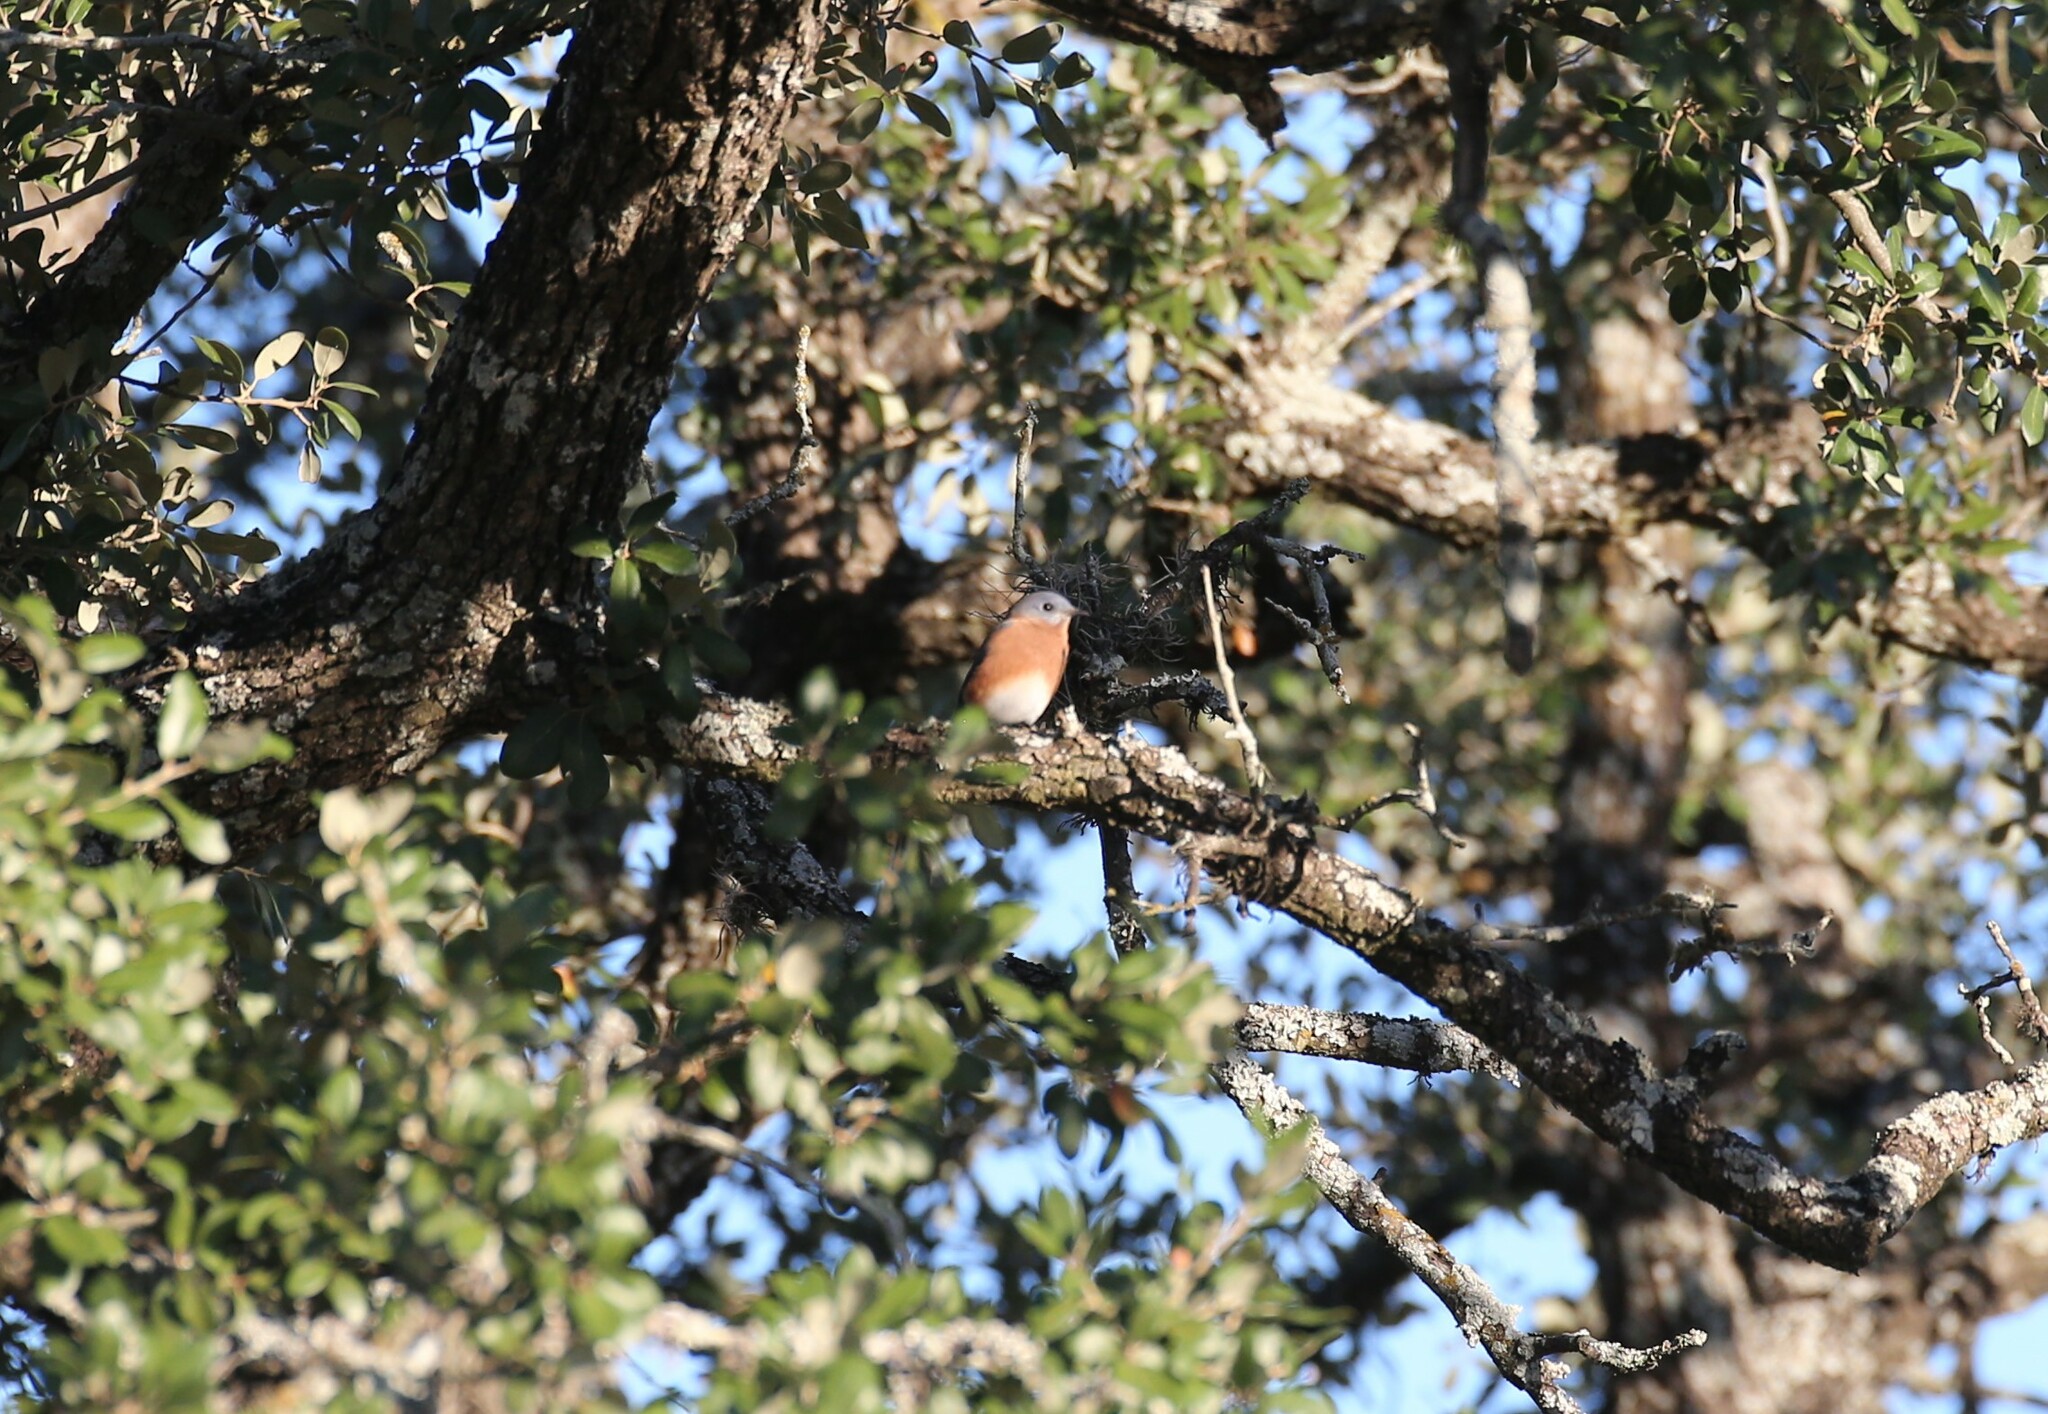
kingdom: Animalia
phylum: Chordata
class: Aves
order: Passeriformes
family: Turdidae
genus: Sialia
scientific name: Sialia sialis
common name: Eastern bluebird
